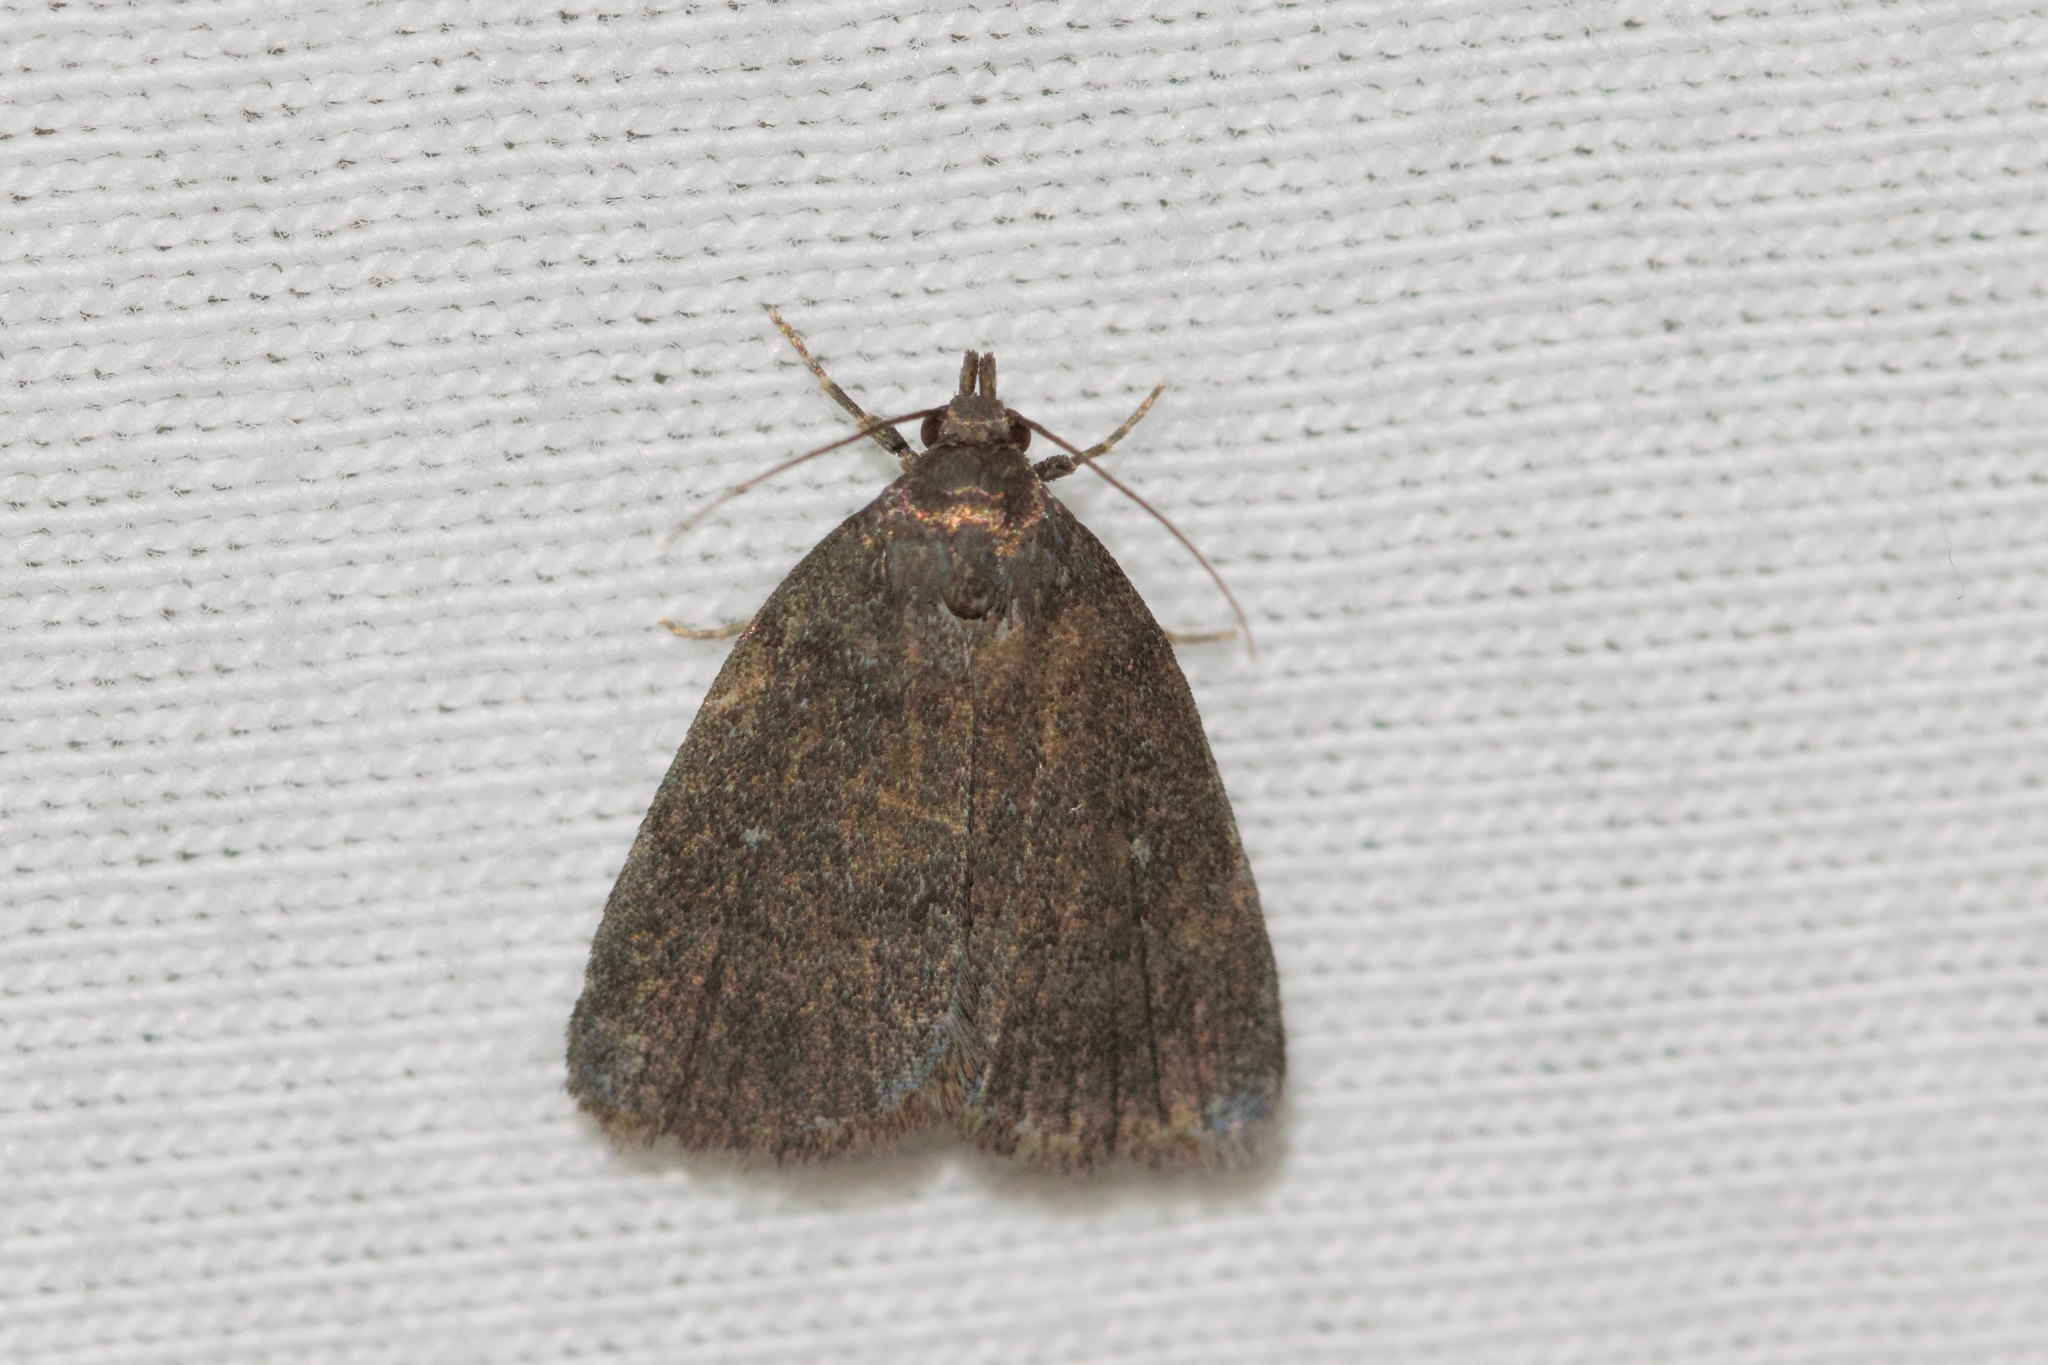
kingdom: Animalia
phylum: Arthropoda
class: Insecta
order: Lepidoptera
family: Erebidae
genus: Idia
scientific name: Idia rotundalis
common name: Rotund idia moth
